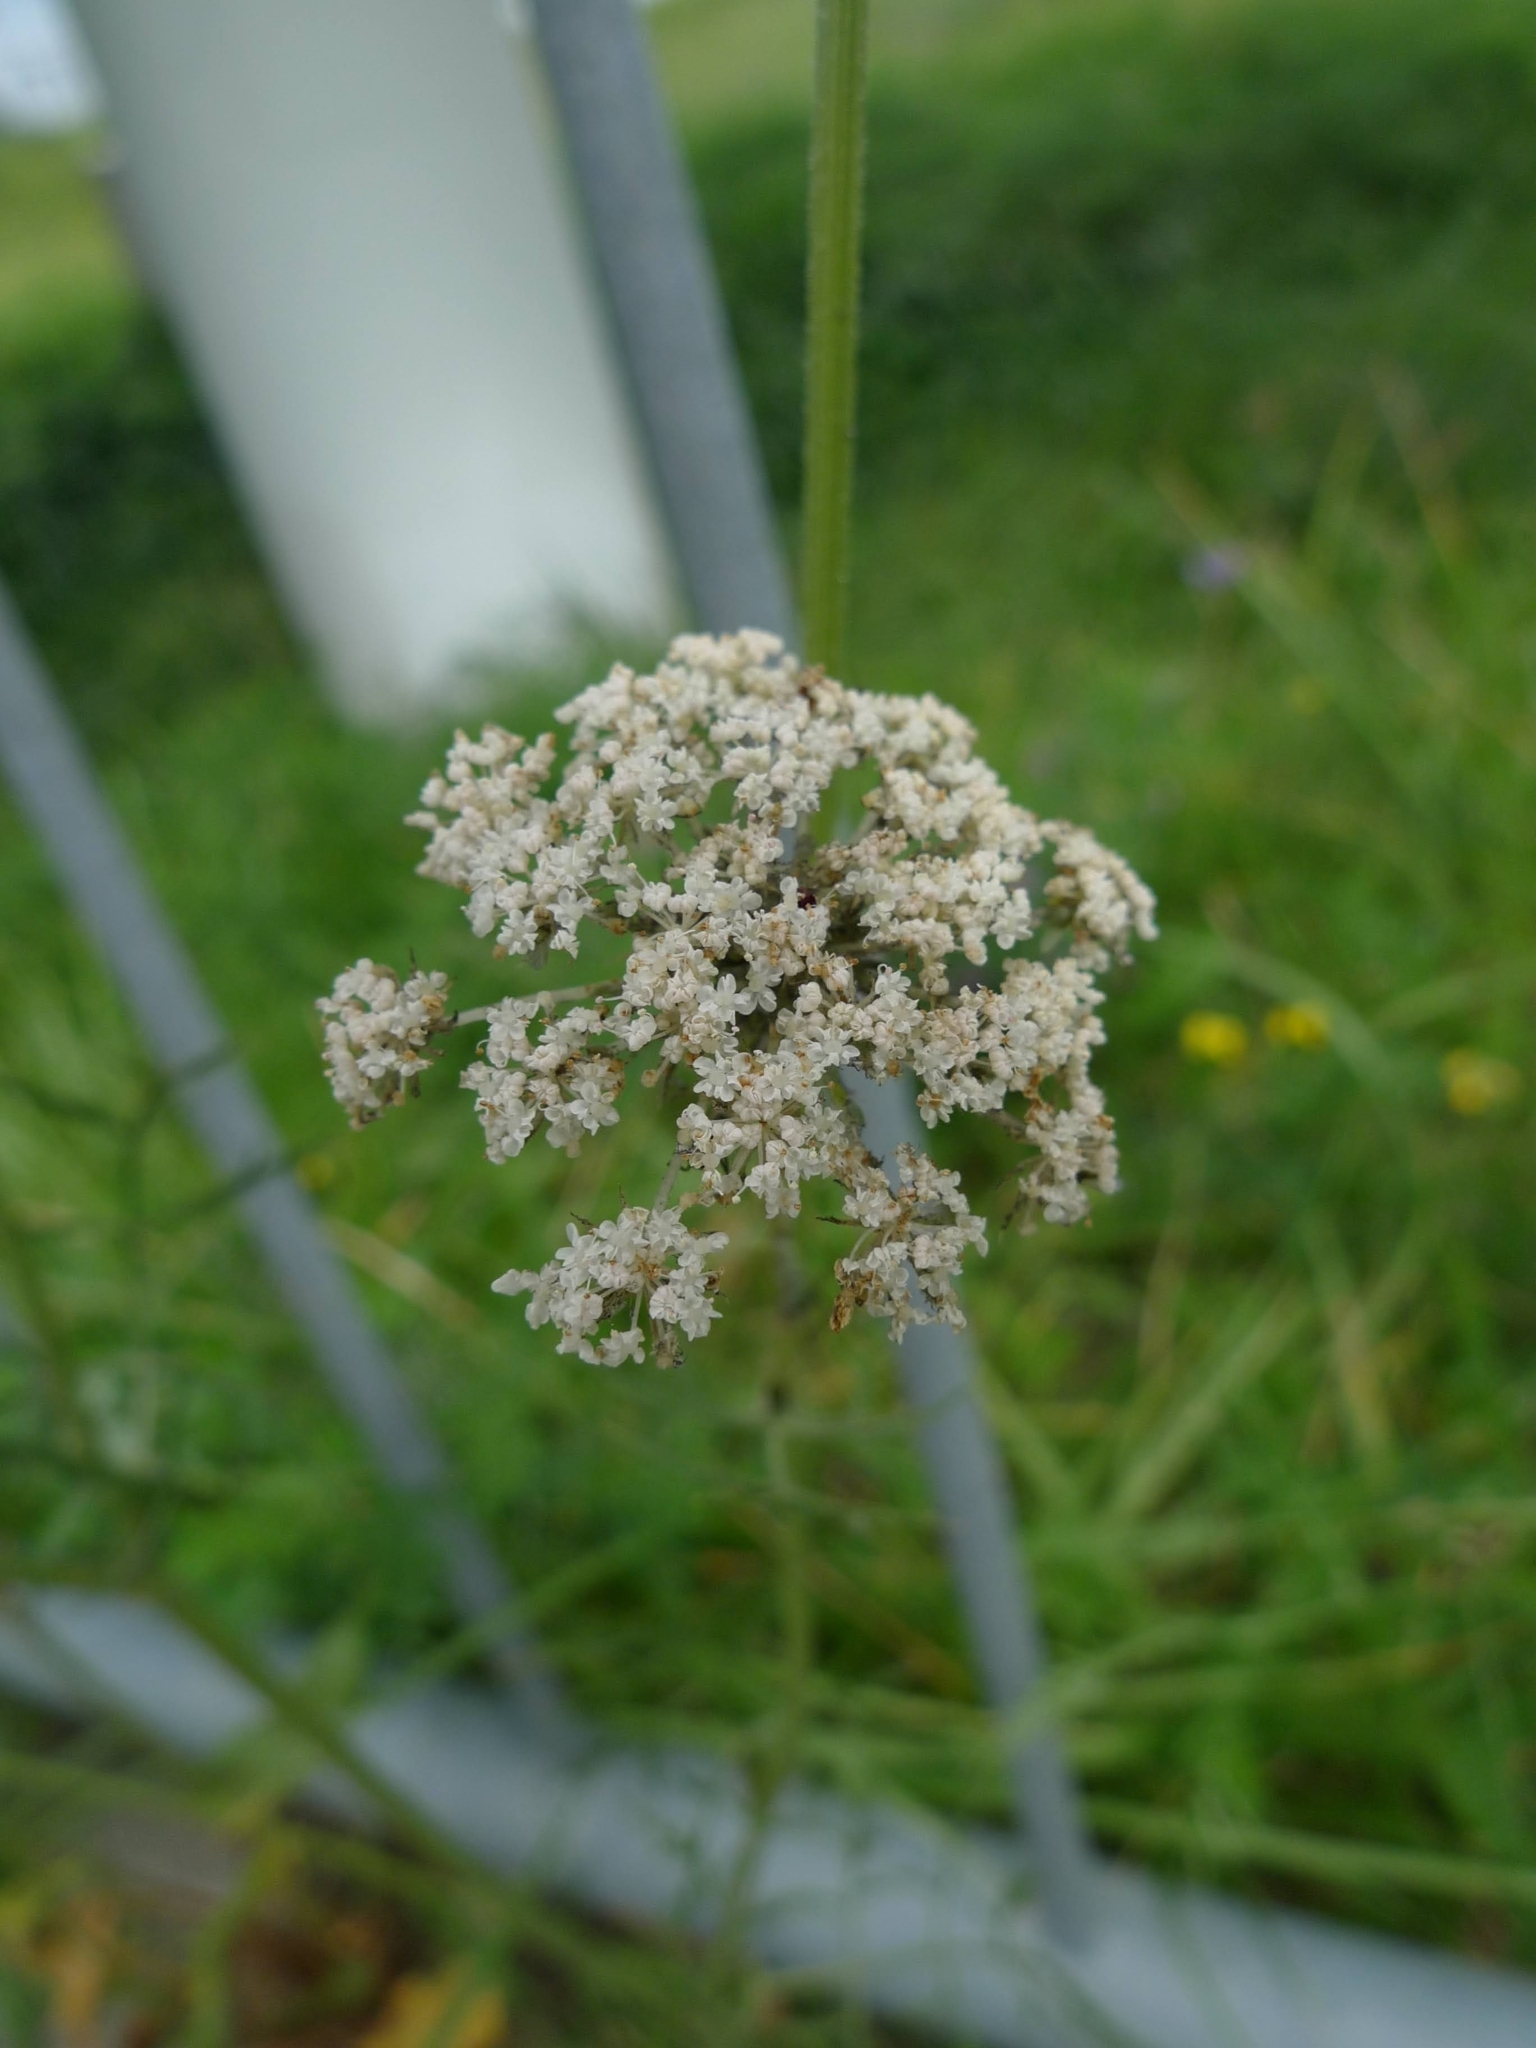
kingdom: Plantae
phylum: Tracheophyta
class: Magnoliopsida
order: Apiales
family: Apiaceae
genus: Daucus
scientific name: Daucus carota
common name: Wild carrot
